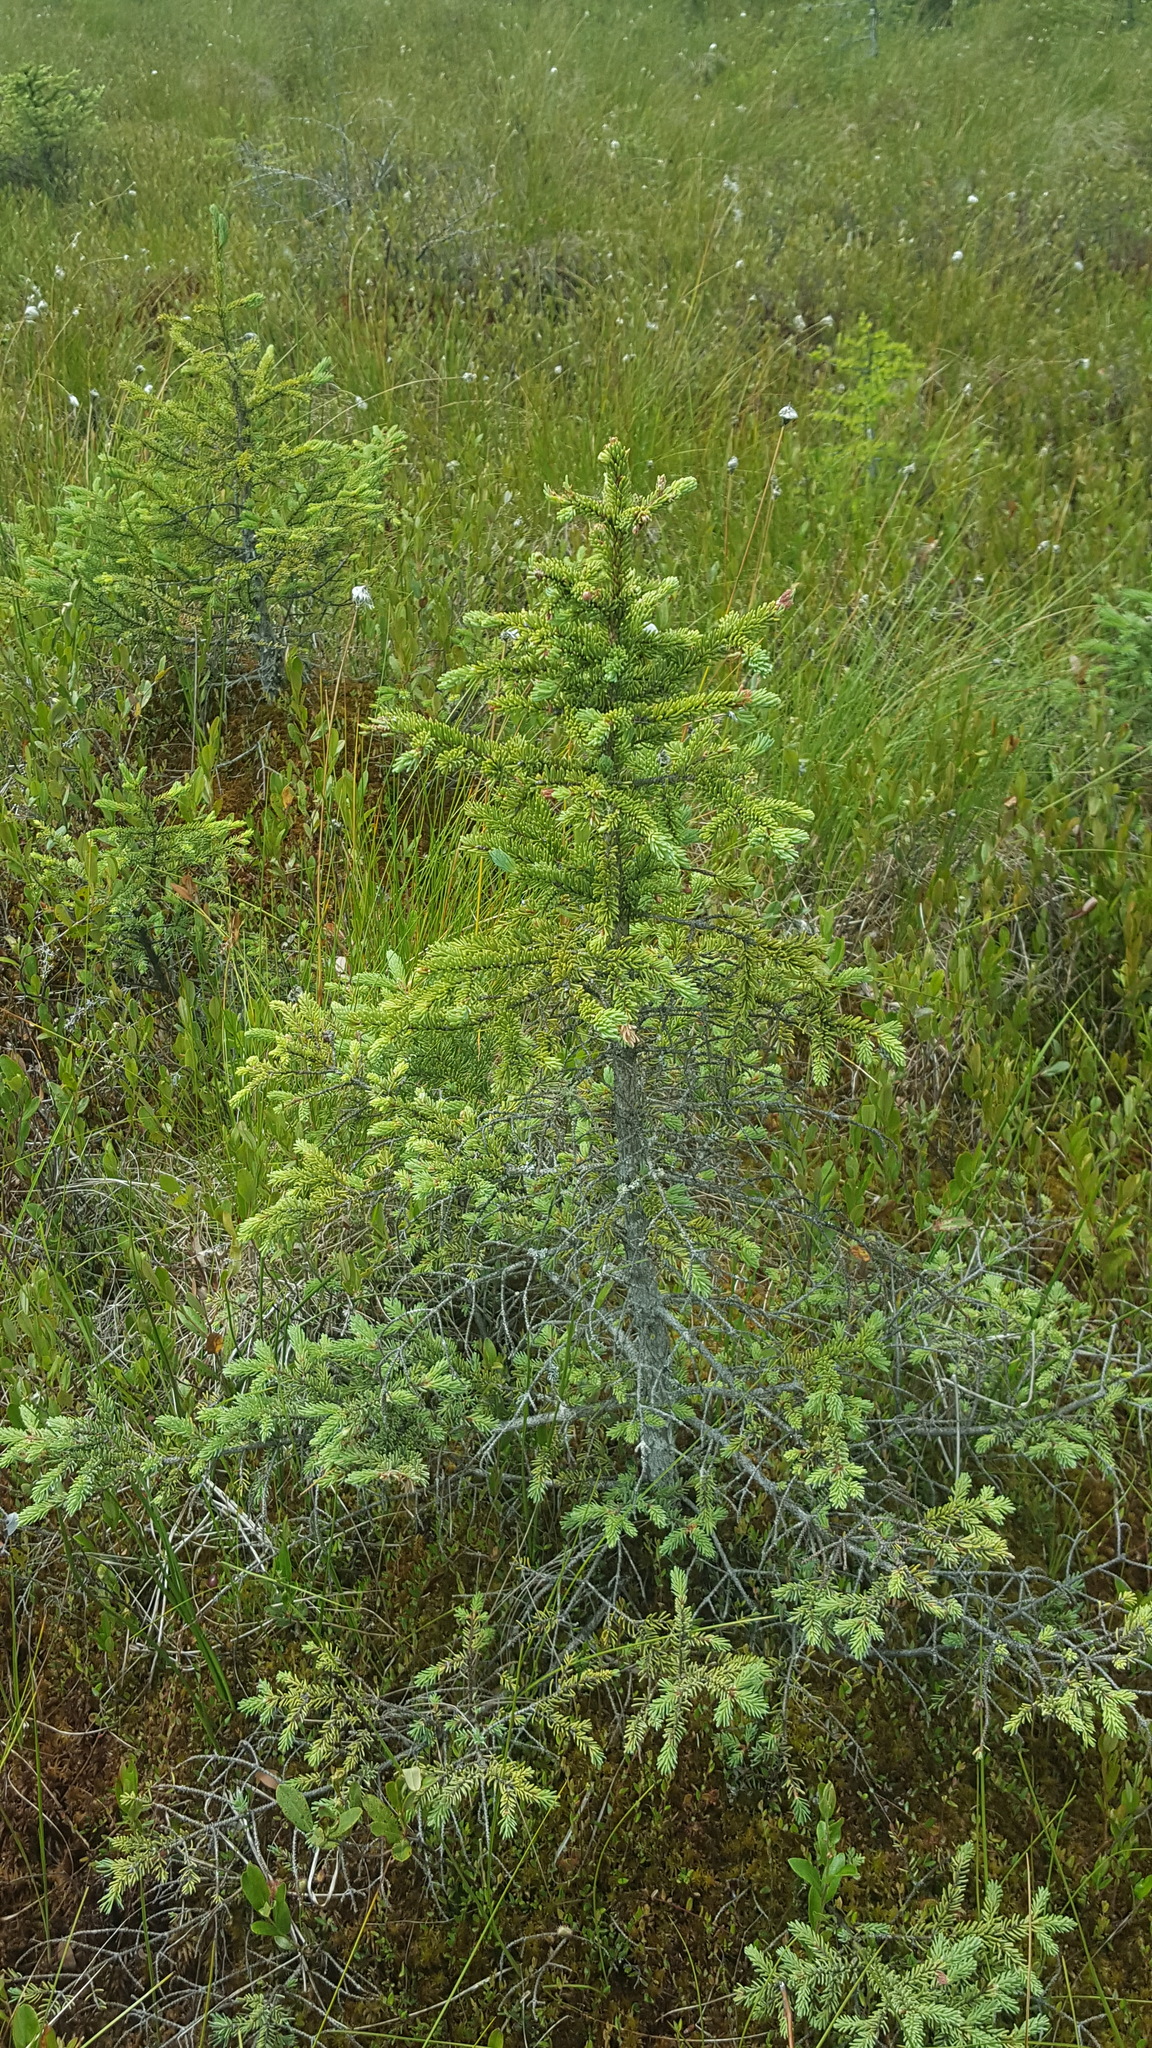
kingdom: Plantae
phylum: Tracheophyta
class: Pinopsida
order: Pinales
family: Pinaceae
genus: Picea
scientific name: Picea mariana
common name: Black spruce
